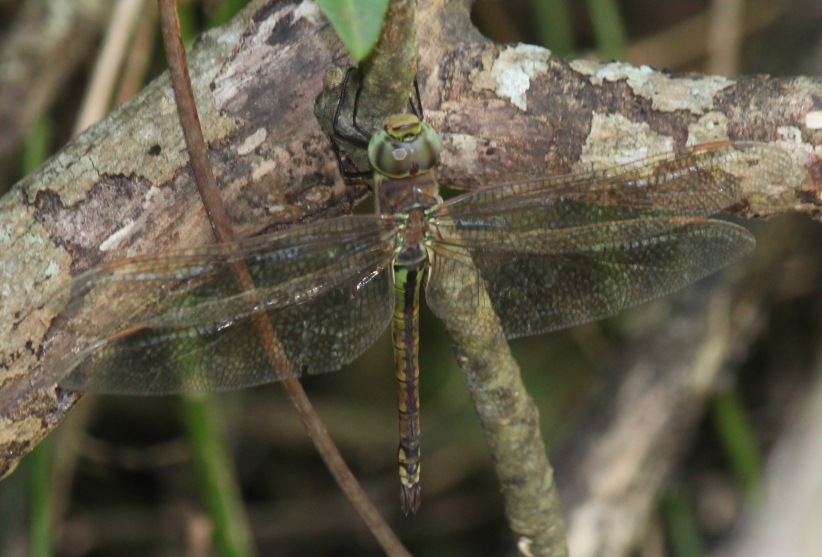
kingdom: Animalia
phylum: Arthropoda
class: Insecta
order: Odonata
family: Aeshnidae
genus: Anax
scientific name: Anax ephippiger
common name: Vagrant emperor
